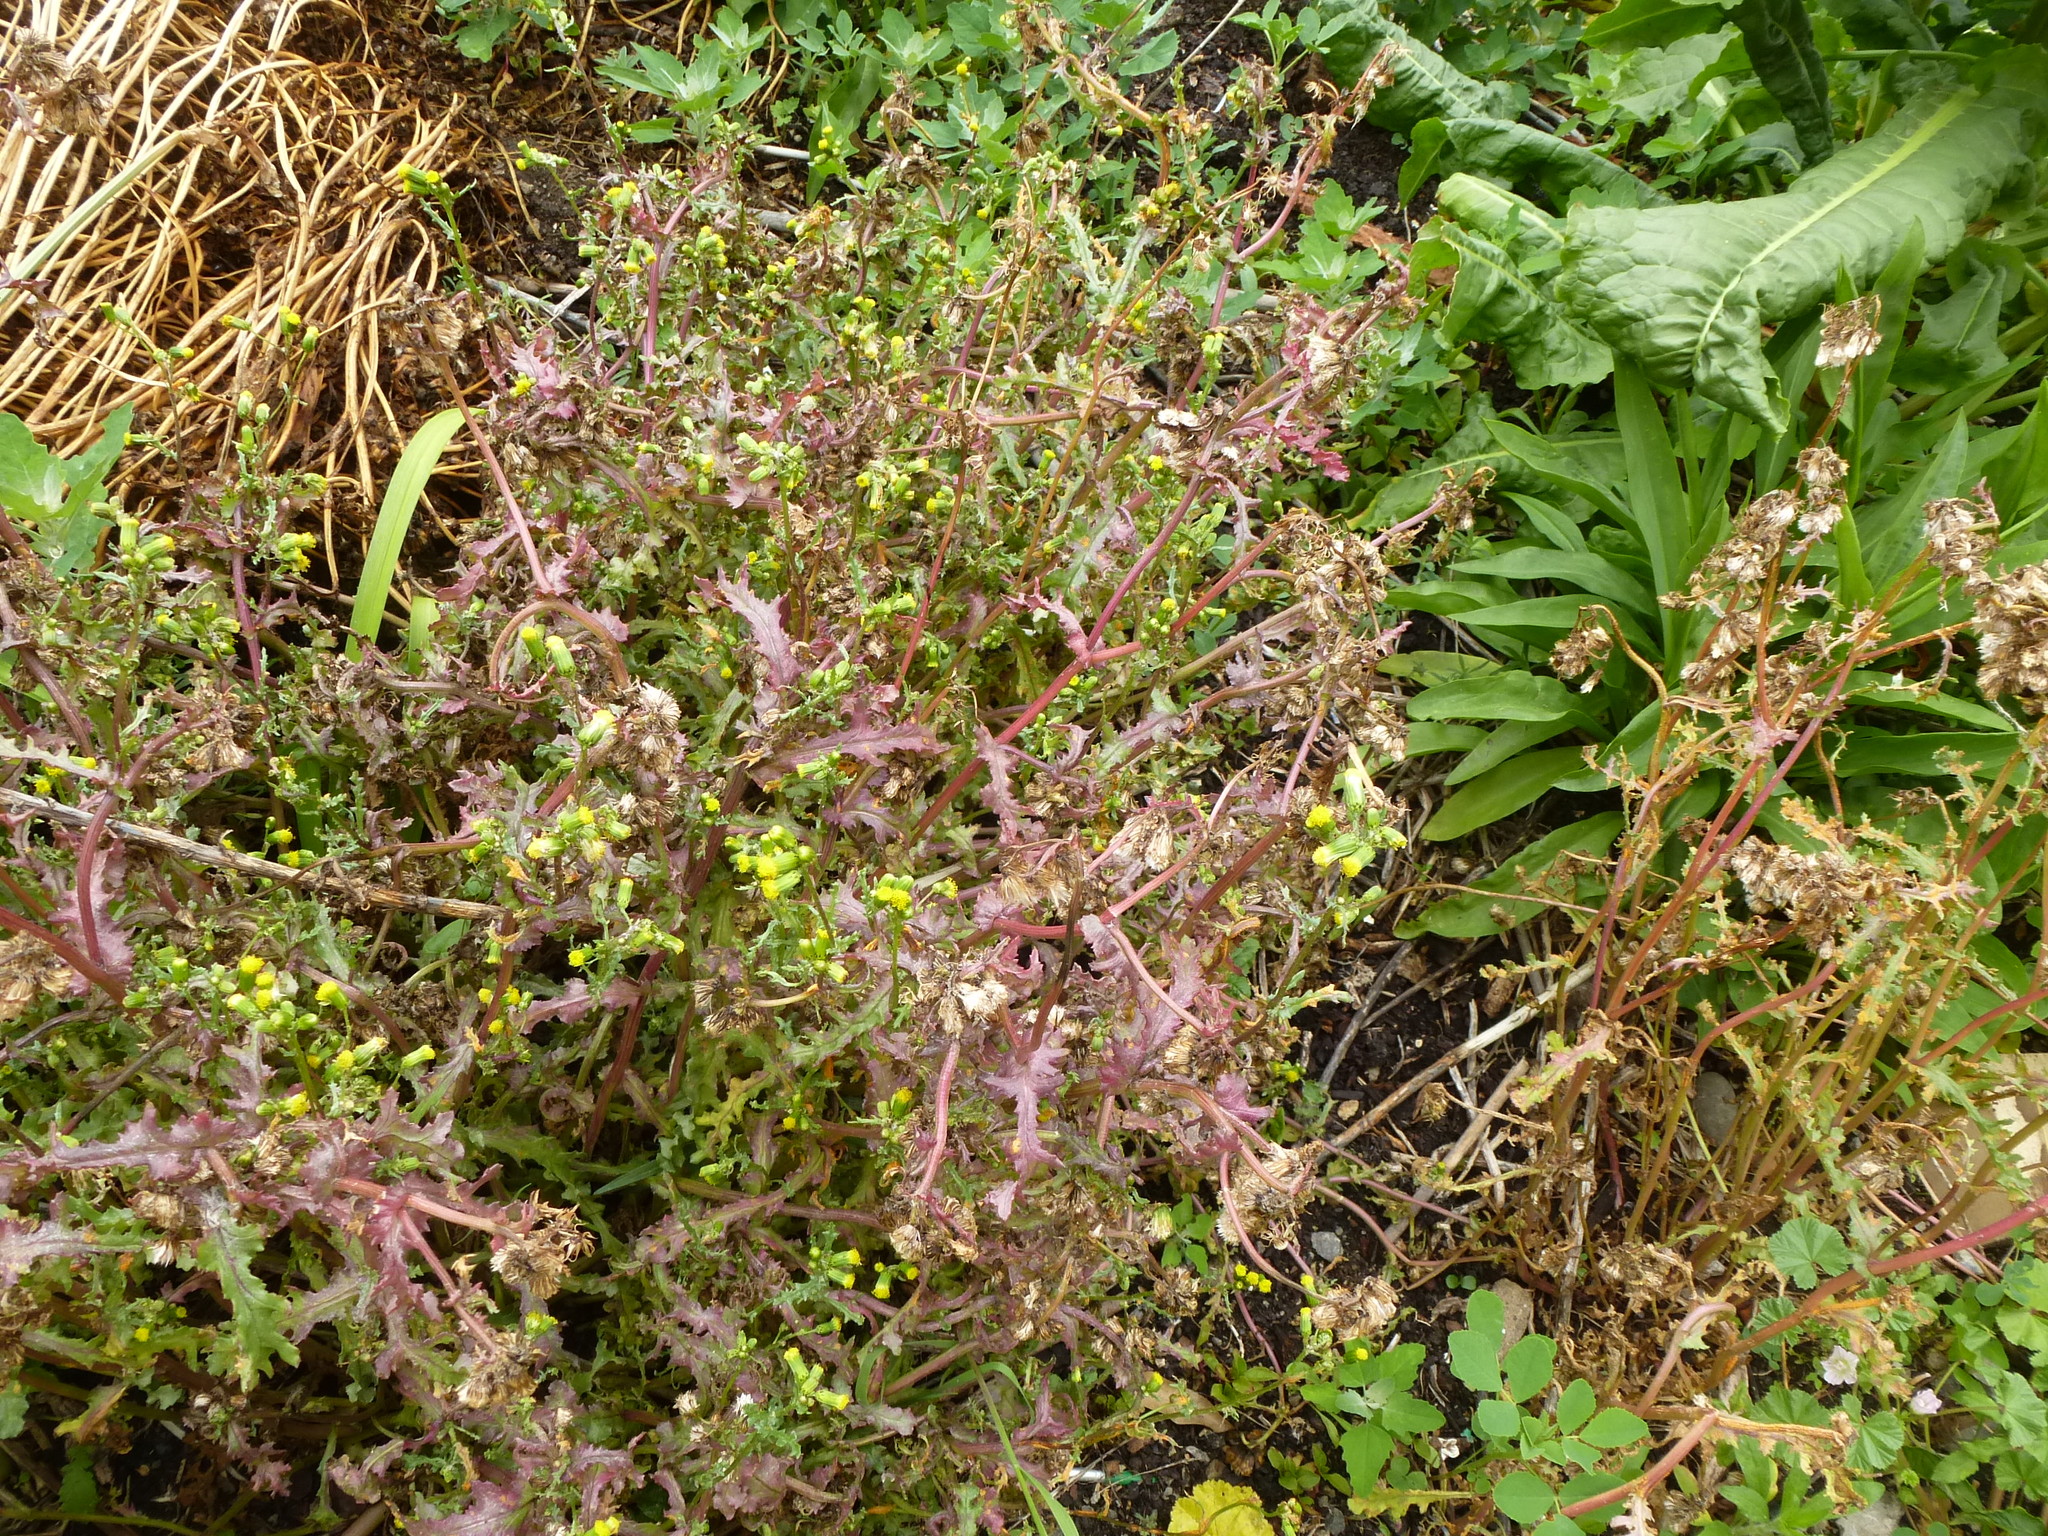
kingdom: Plantae
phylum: Tracheophyta
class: Magnoliopsida
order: Asterales
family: Asteraceae
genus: Senecio
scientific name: Senecio vulgaris
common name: Old-man-in-the-spring
